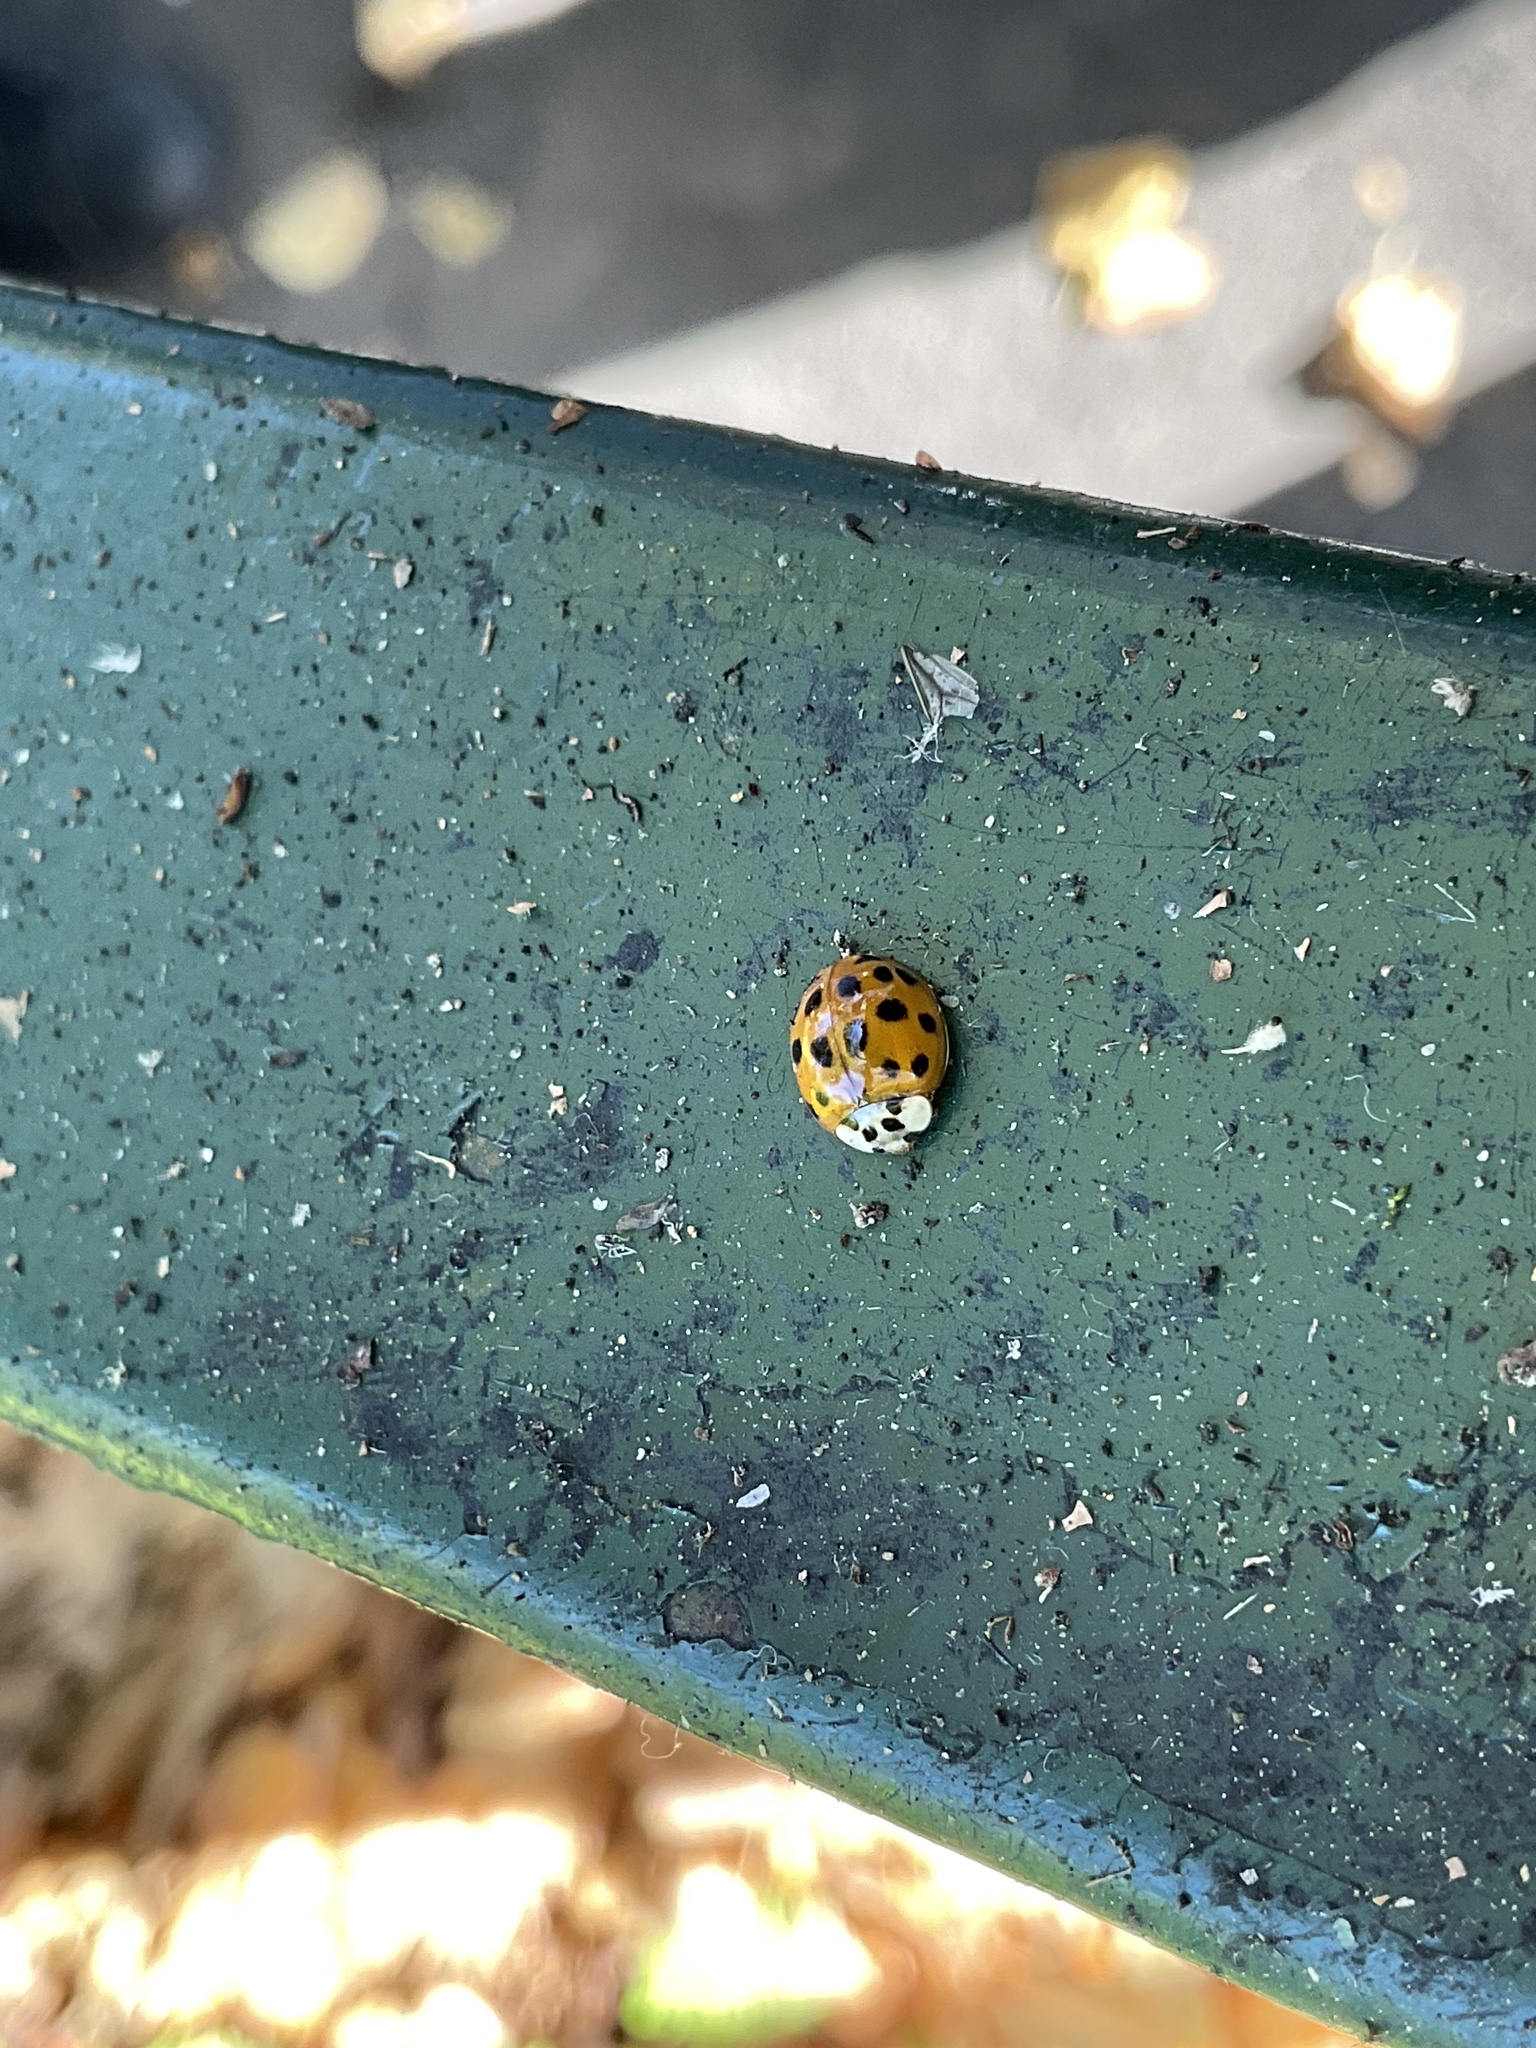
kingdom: Animalia
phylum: Arthropoda
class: Insecta
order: Coleoptera
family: Coccinellidae
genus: Harmonia
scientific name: Harmonia axyridis
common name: Harlequin ladybird
